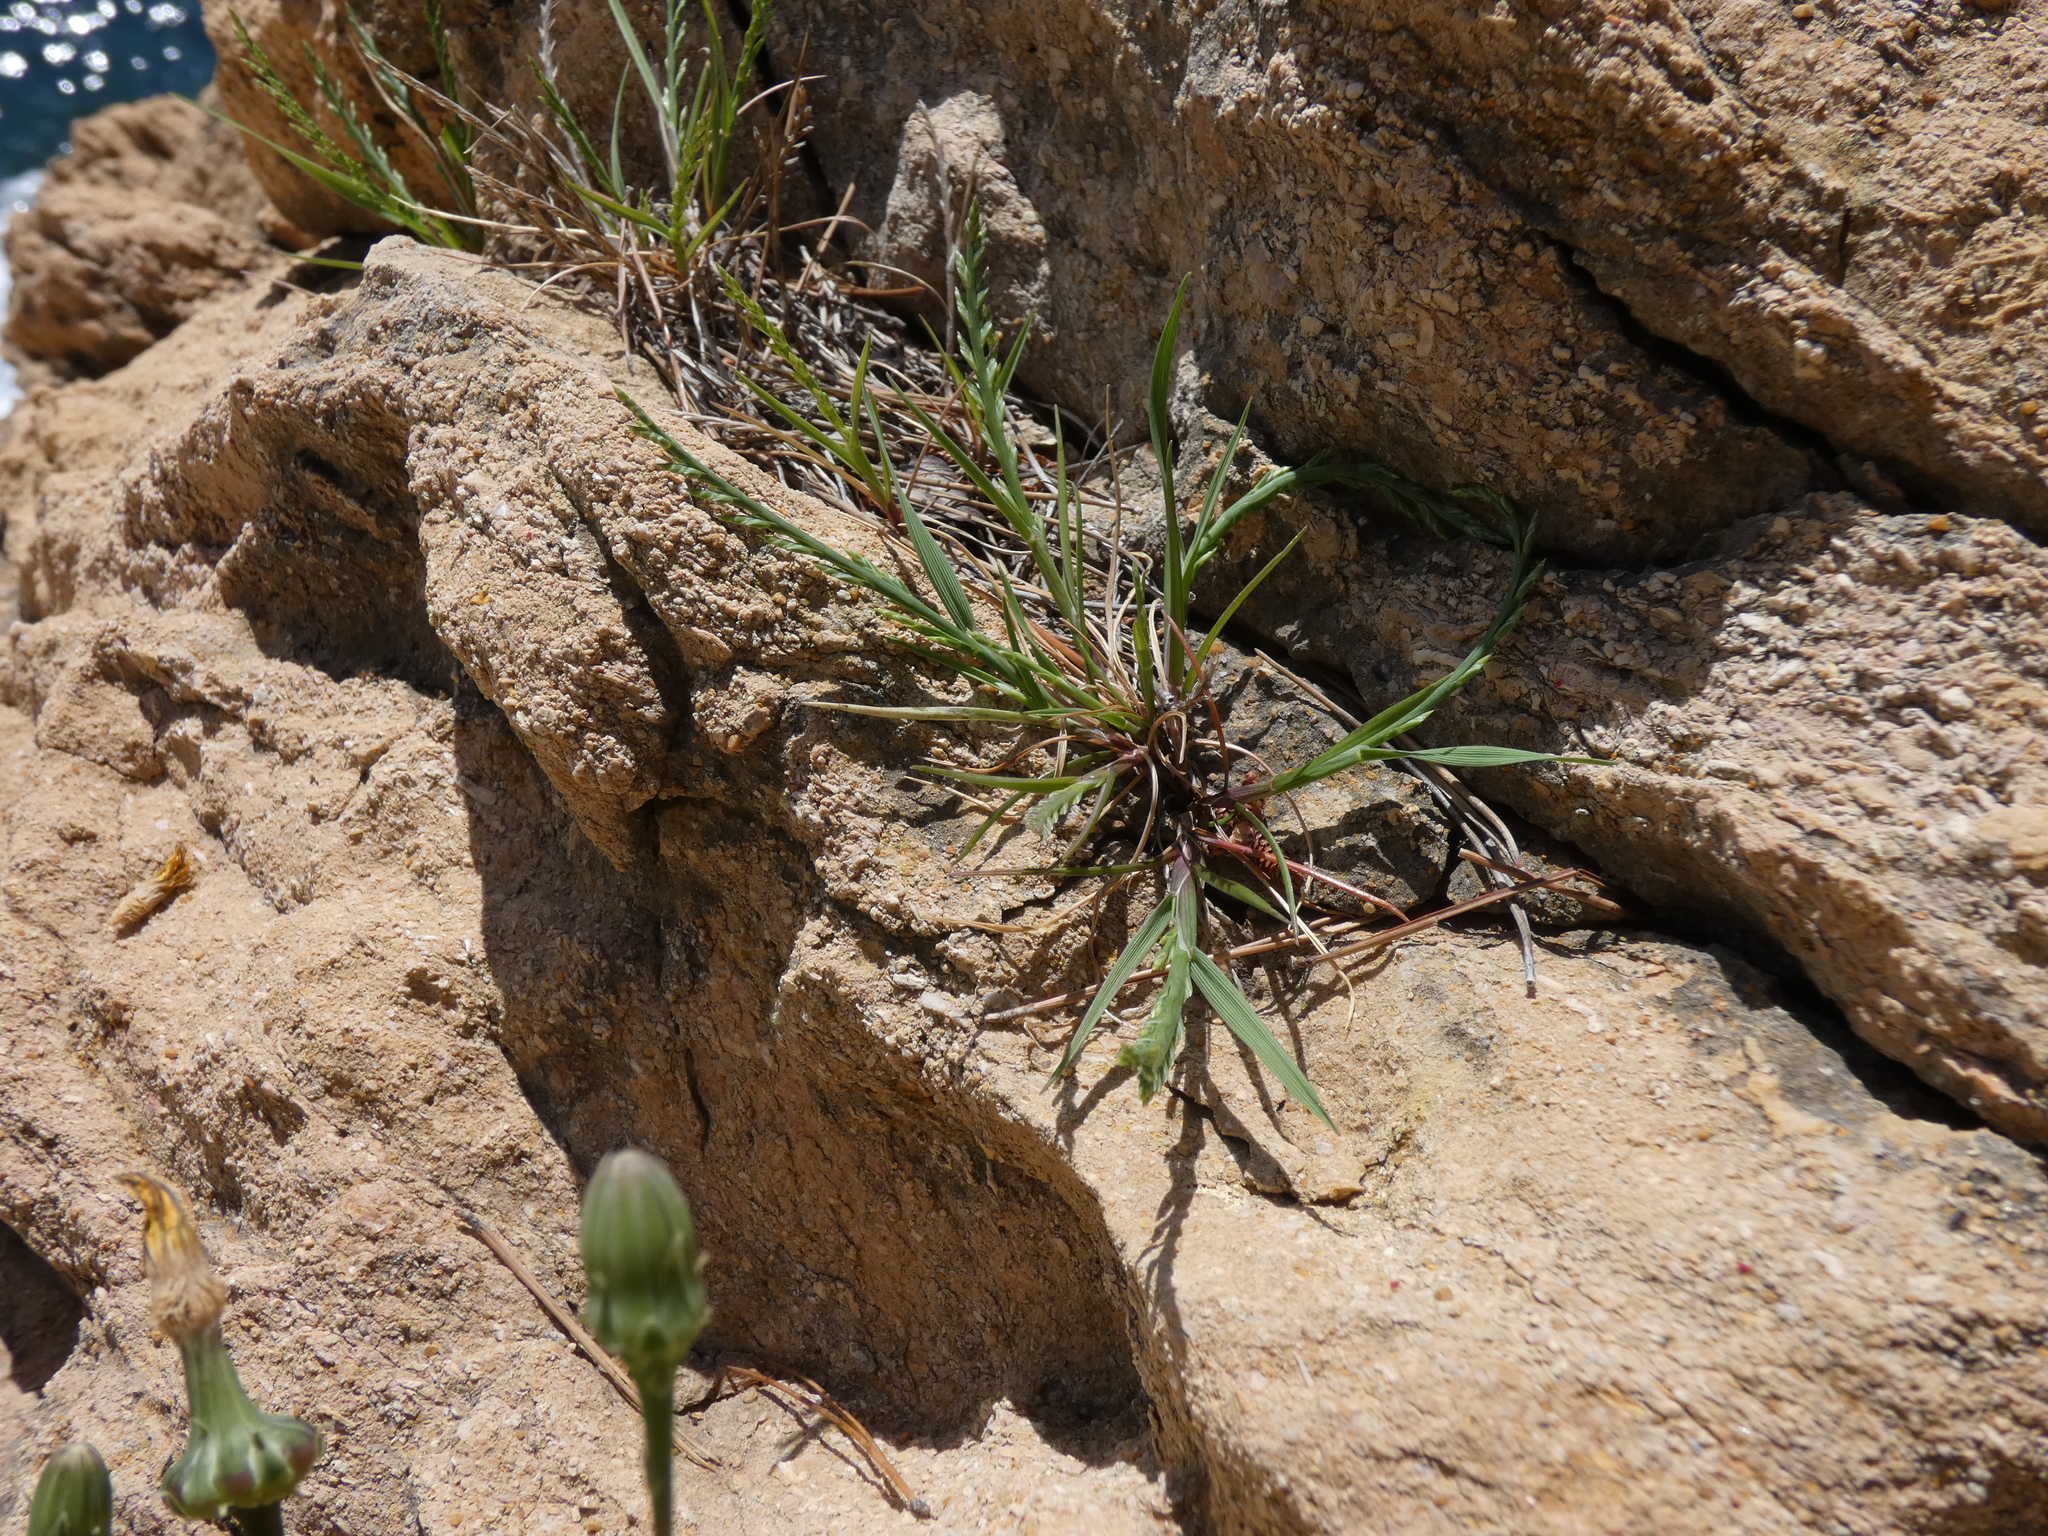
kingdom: Plantae
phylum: Tracheophyta
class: Liliopsida
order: Poales
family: Poaceae
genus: Catapodium
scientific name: Catapodium marinum
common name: Sea fern-grass
